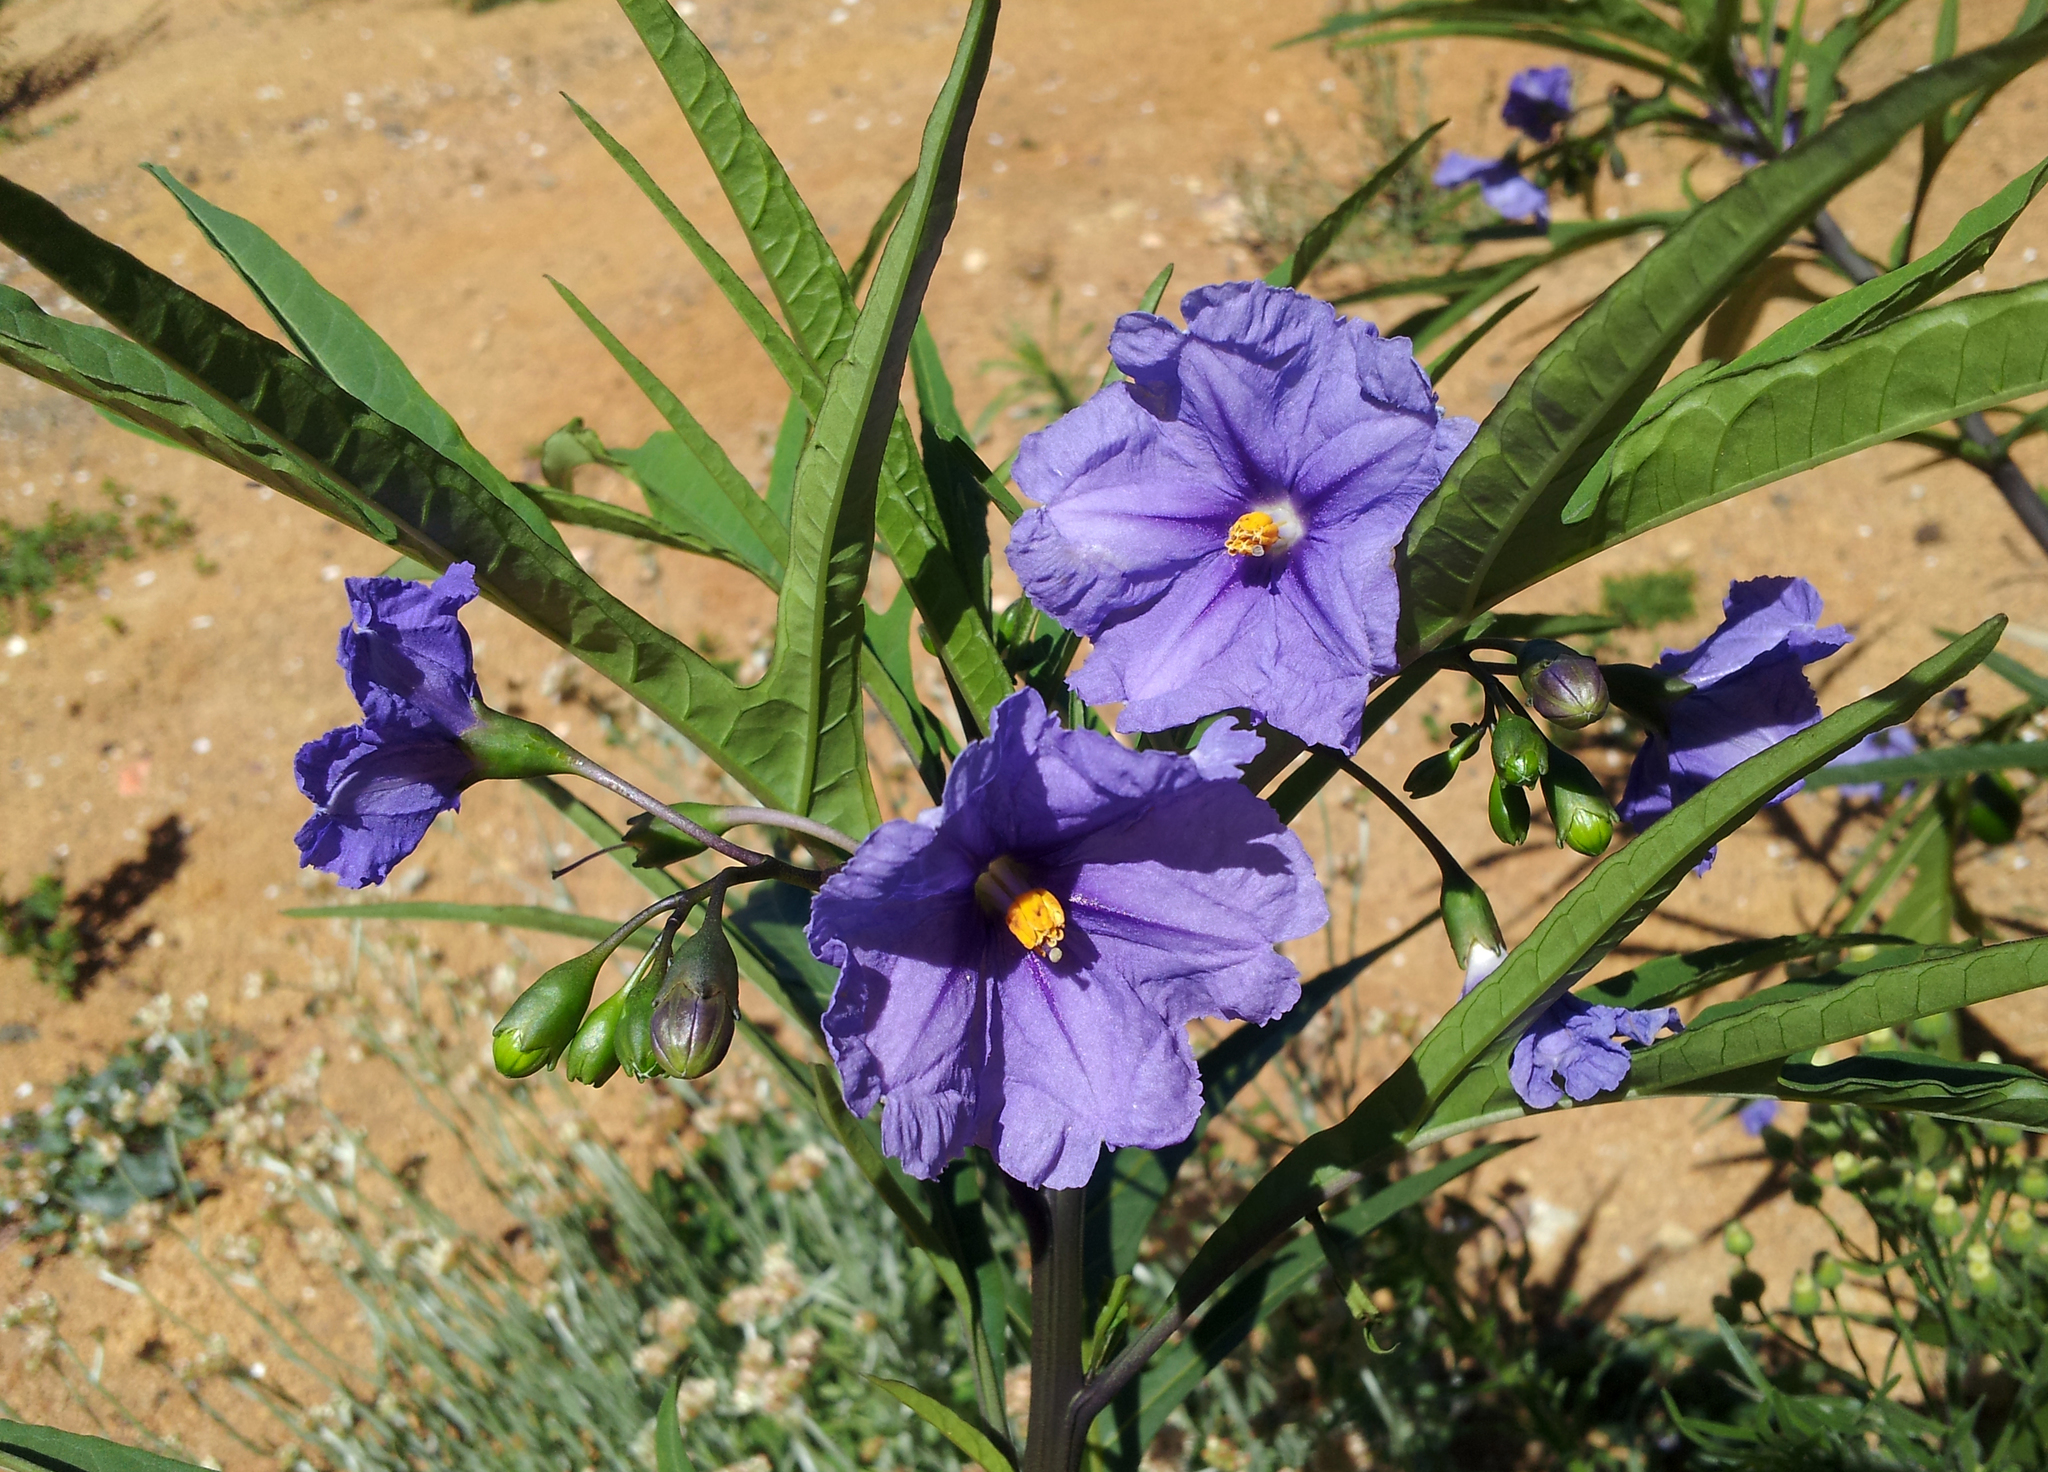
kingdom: Plantae
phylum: Tracheophyta
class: Magnoliopsida
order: Solanales
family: Solanaceae
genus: Solanum
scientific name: Solanum laciniatum
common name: Kangaroo-apple
